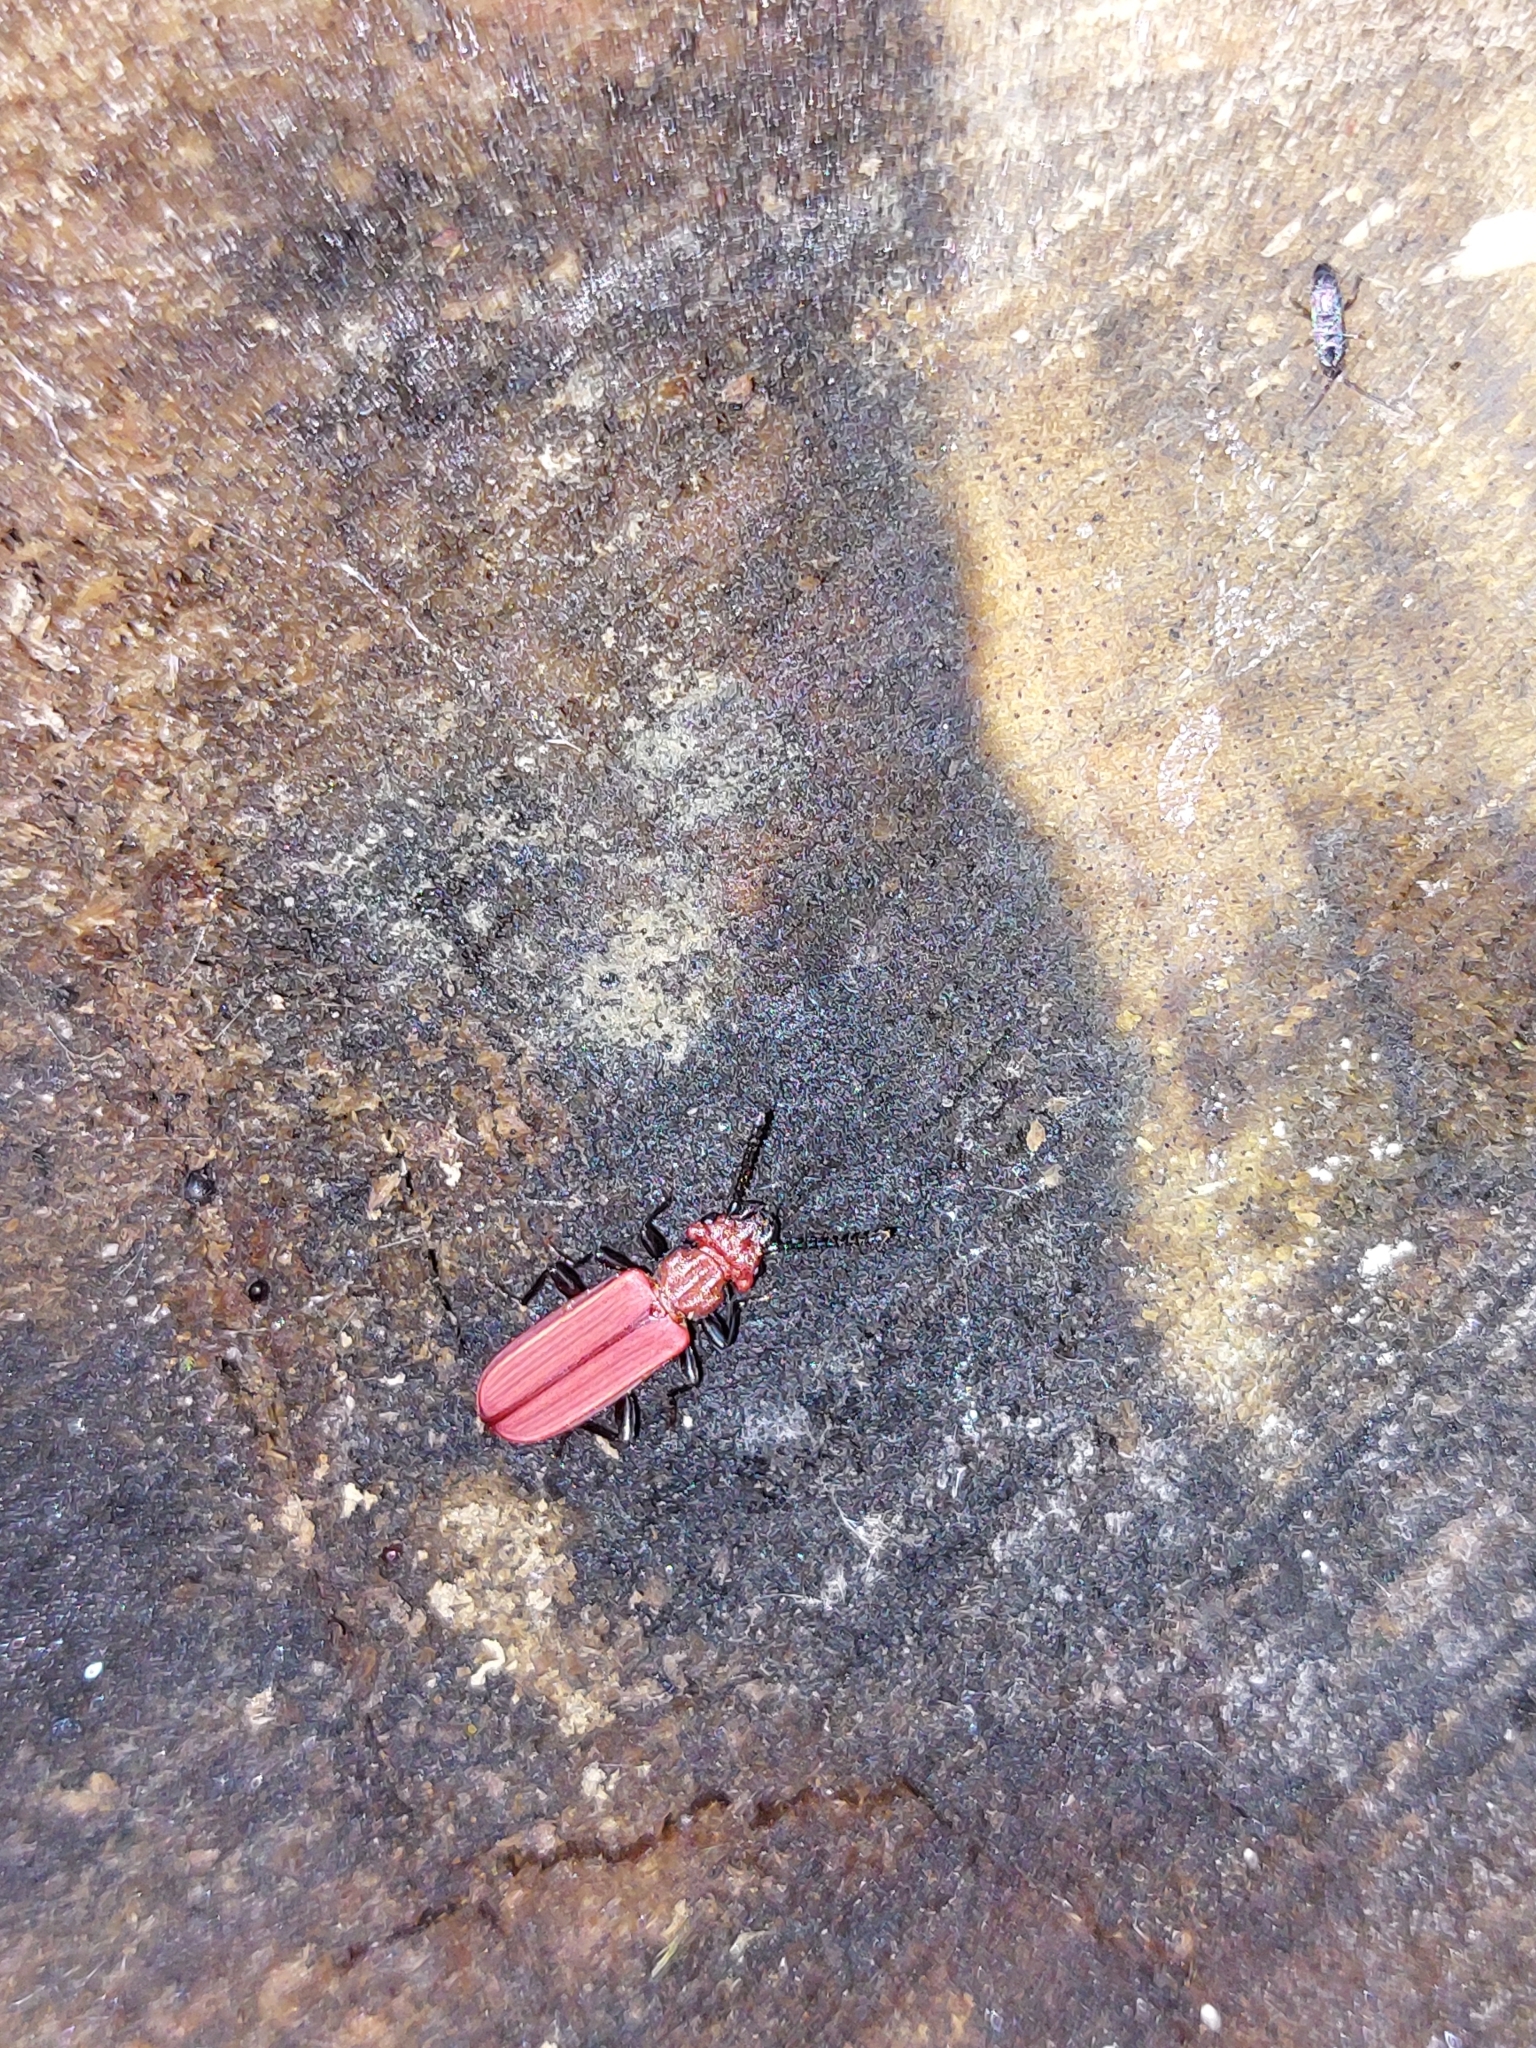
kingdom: Animalia
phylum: Arthropoda
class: Insecta
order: Coleoptera
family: Cucujidae
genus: Cucujus
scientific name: Cucujus cinnaberinus
